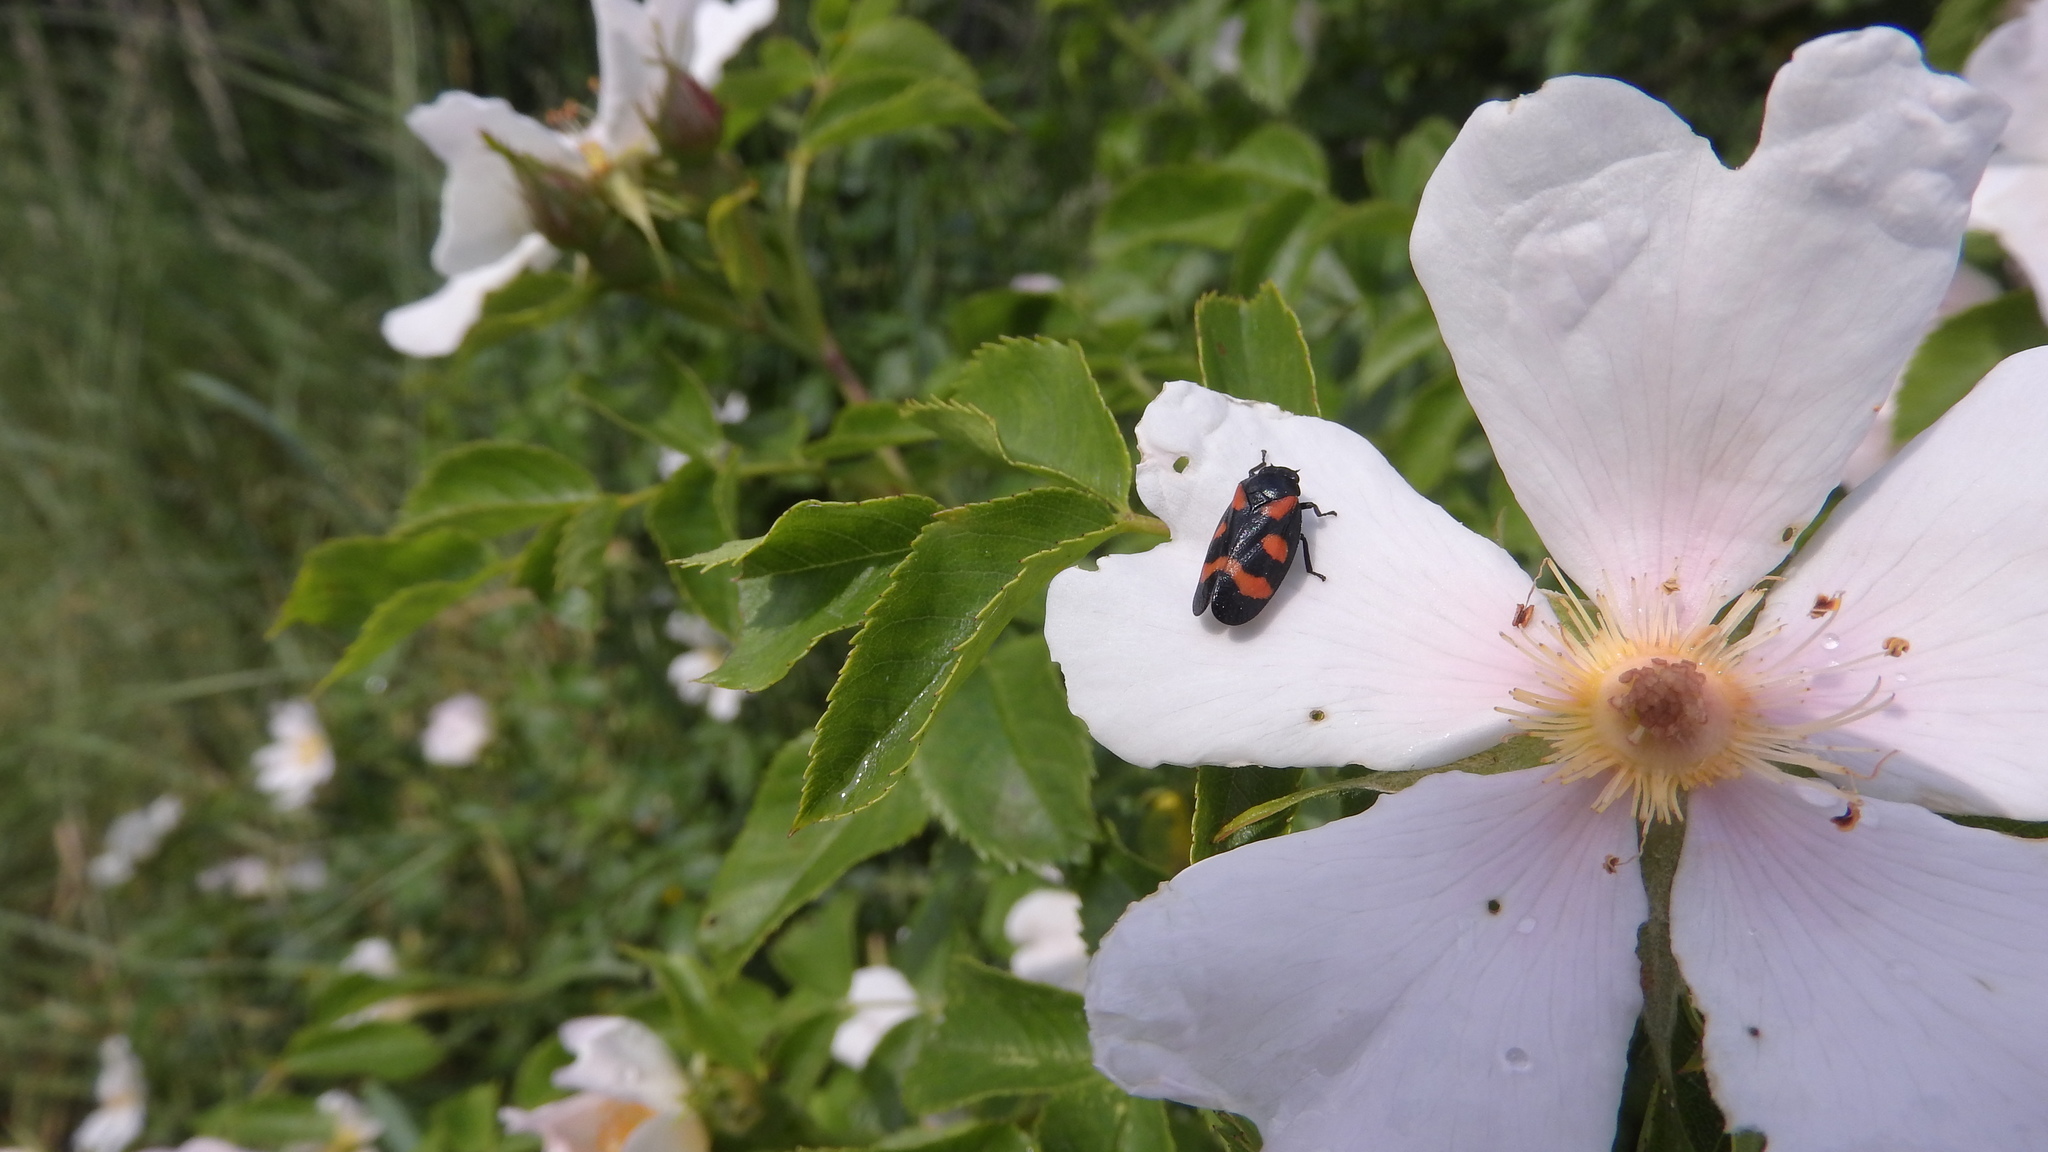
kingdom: Animalia
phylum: Arthropoda
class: Insecta
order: Hemiptera
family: Cercopidae
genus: Cercopis
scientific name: Cercopis sanguinolenta
